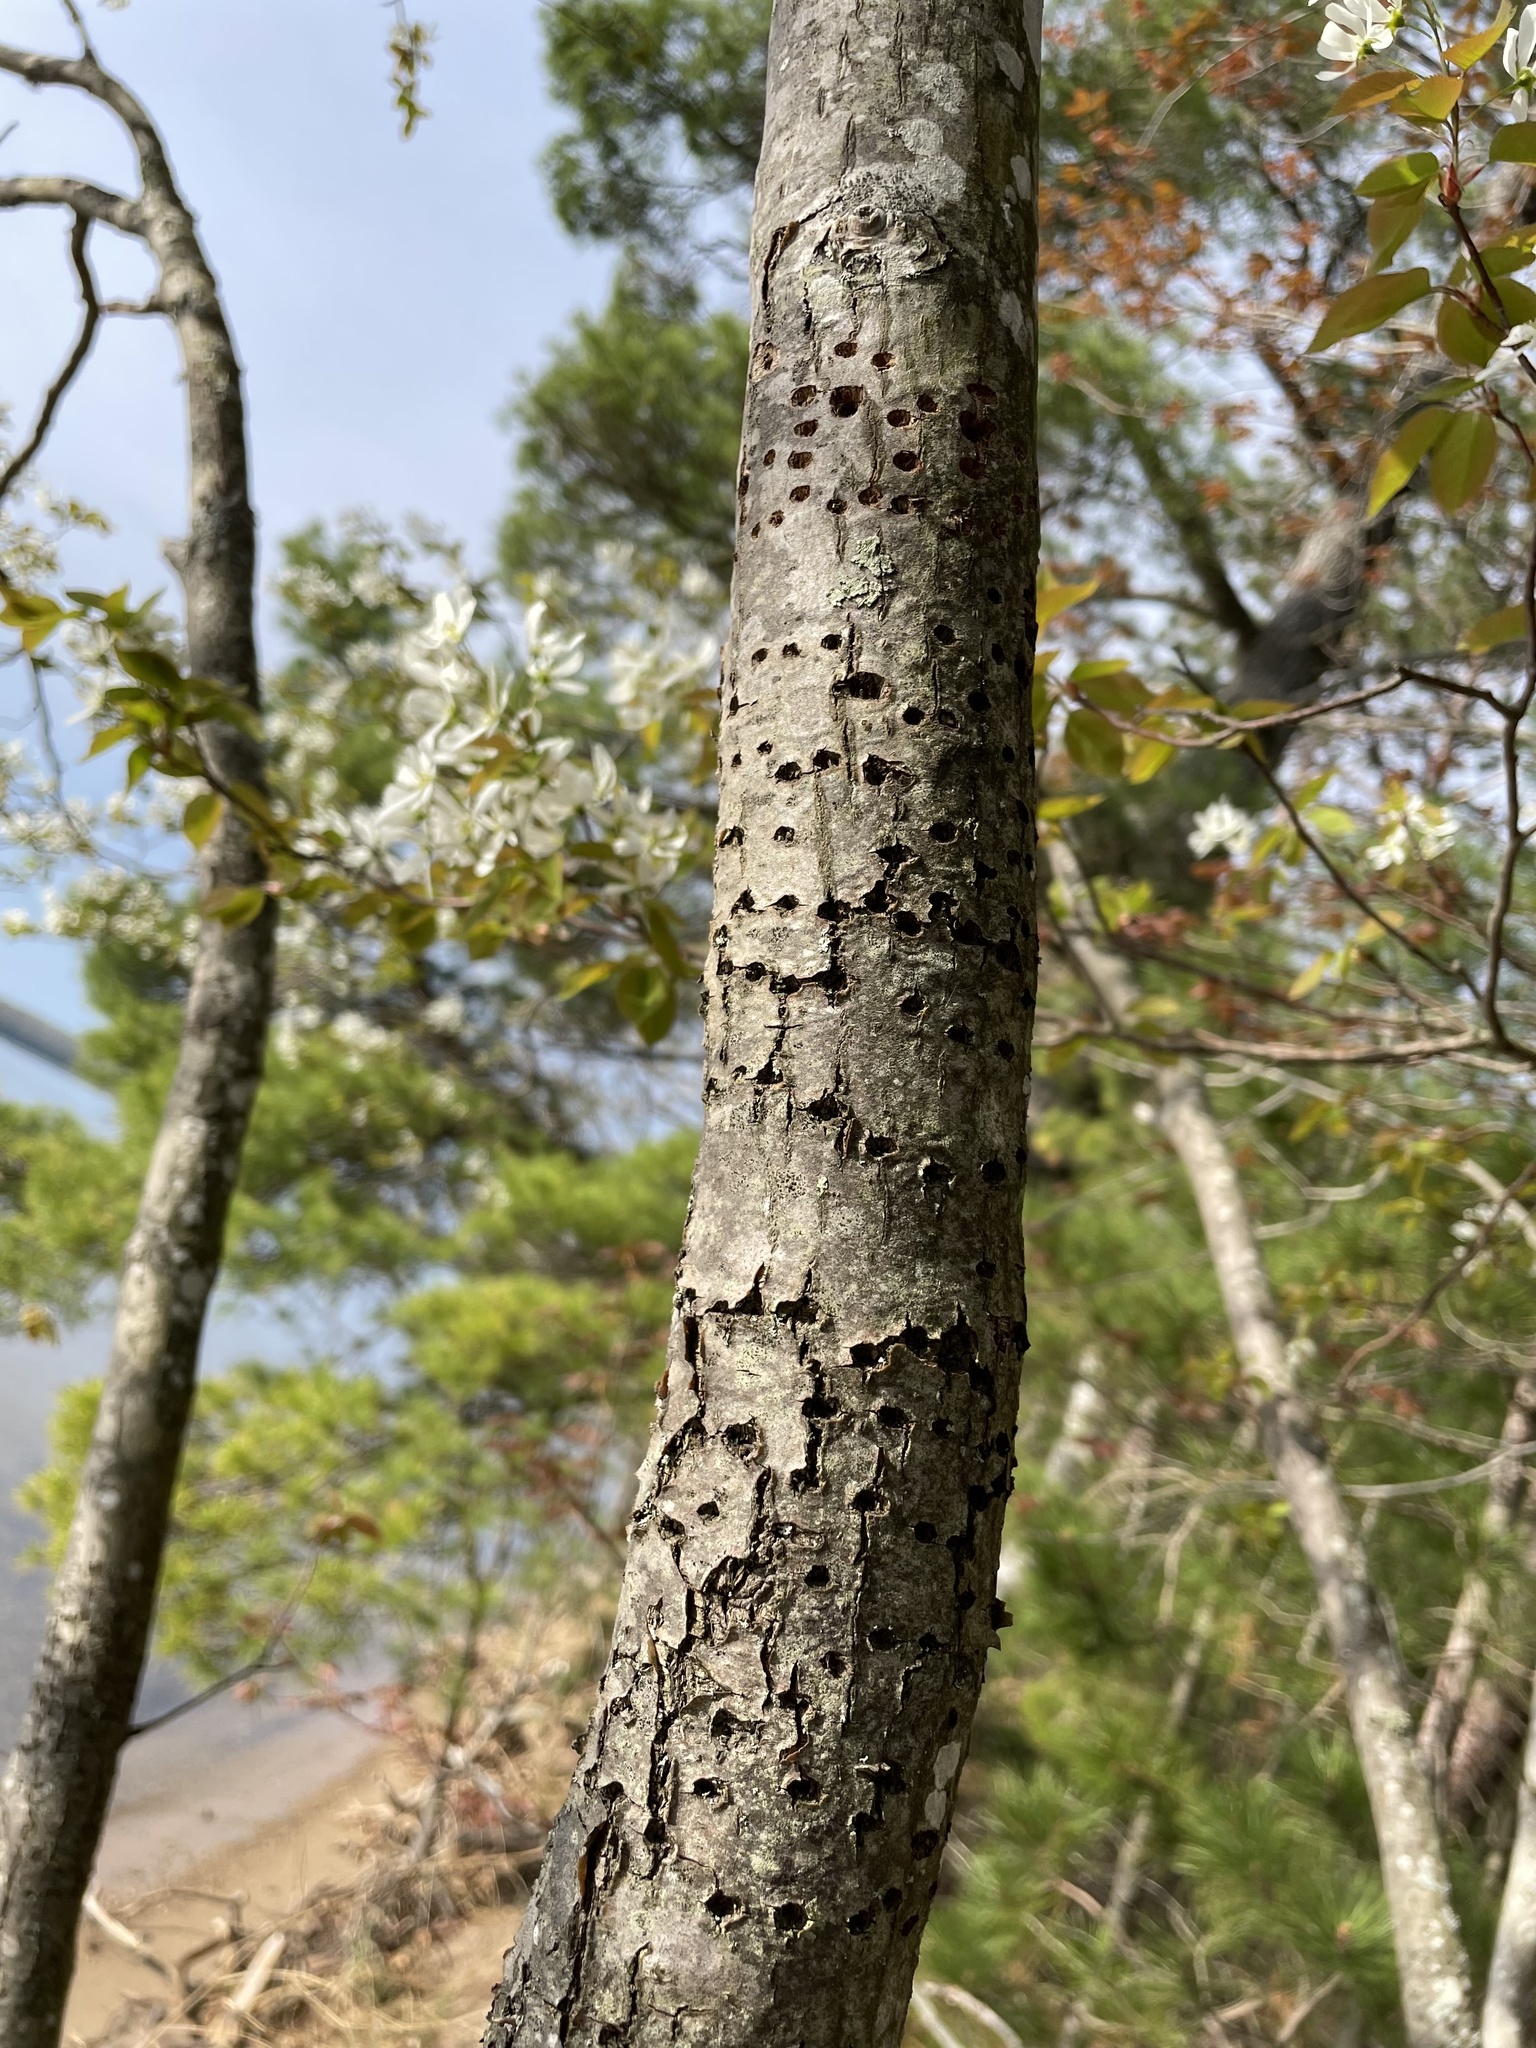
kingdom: Animalia
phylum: Chordata
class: Aves
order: Piciformes
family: Picidae
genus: Sphyrapicus
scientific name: Sphyrapicus varius
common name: Yellow-bellied sapsucker
